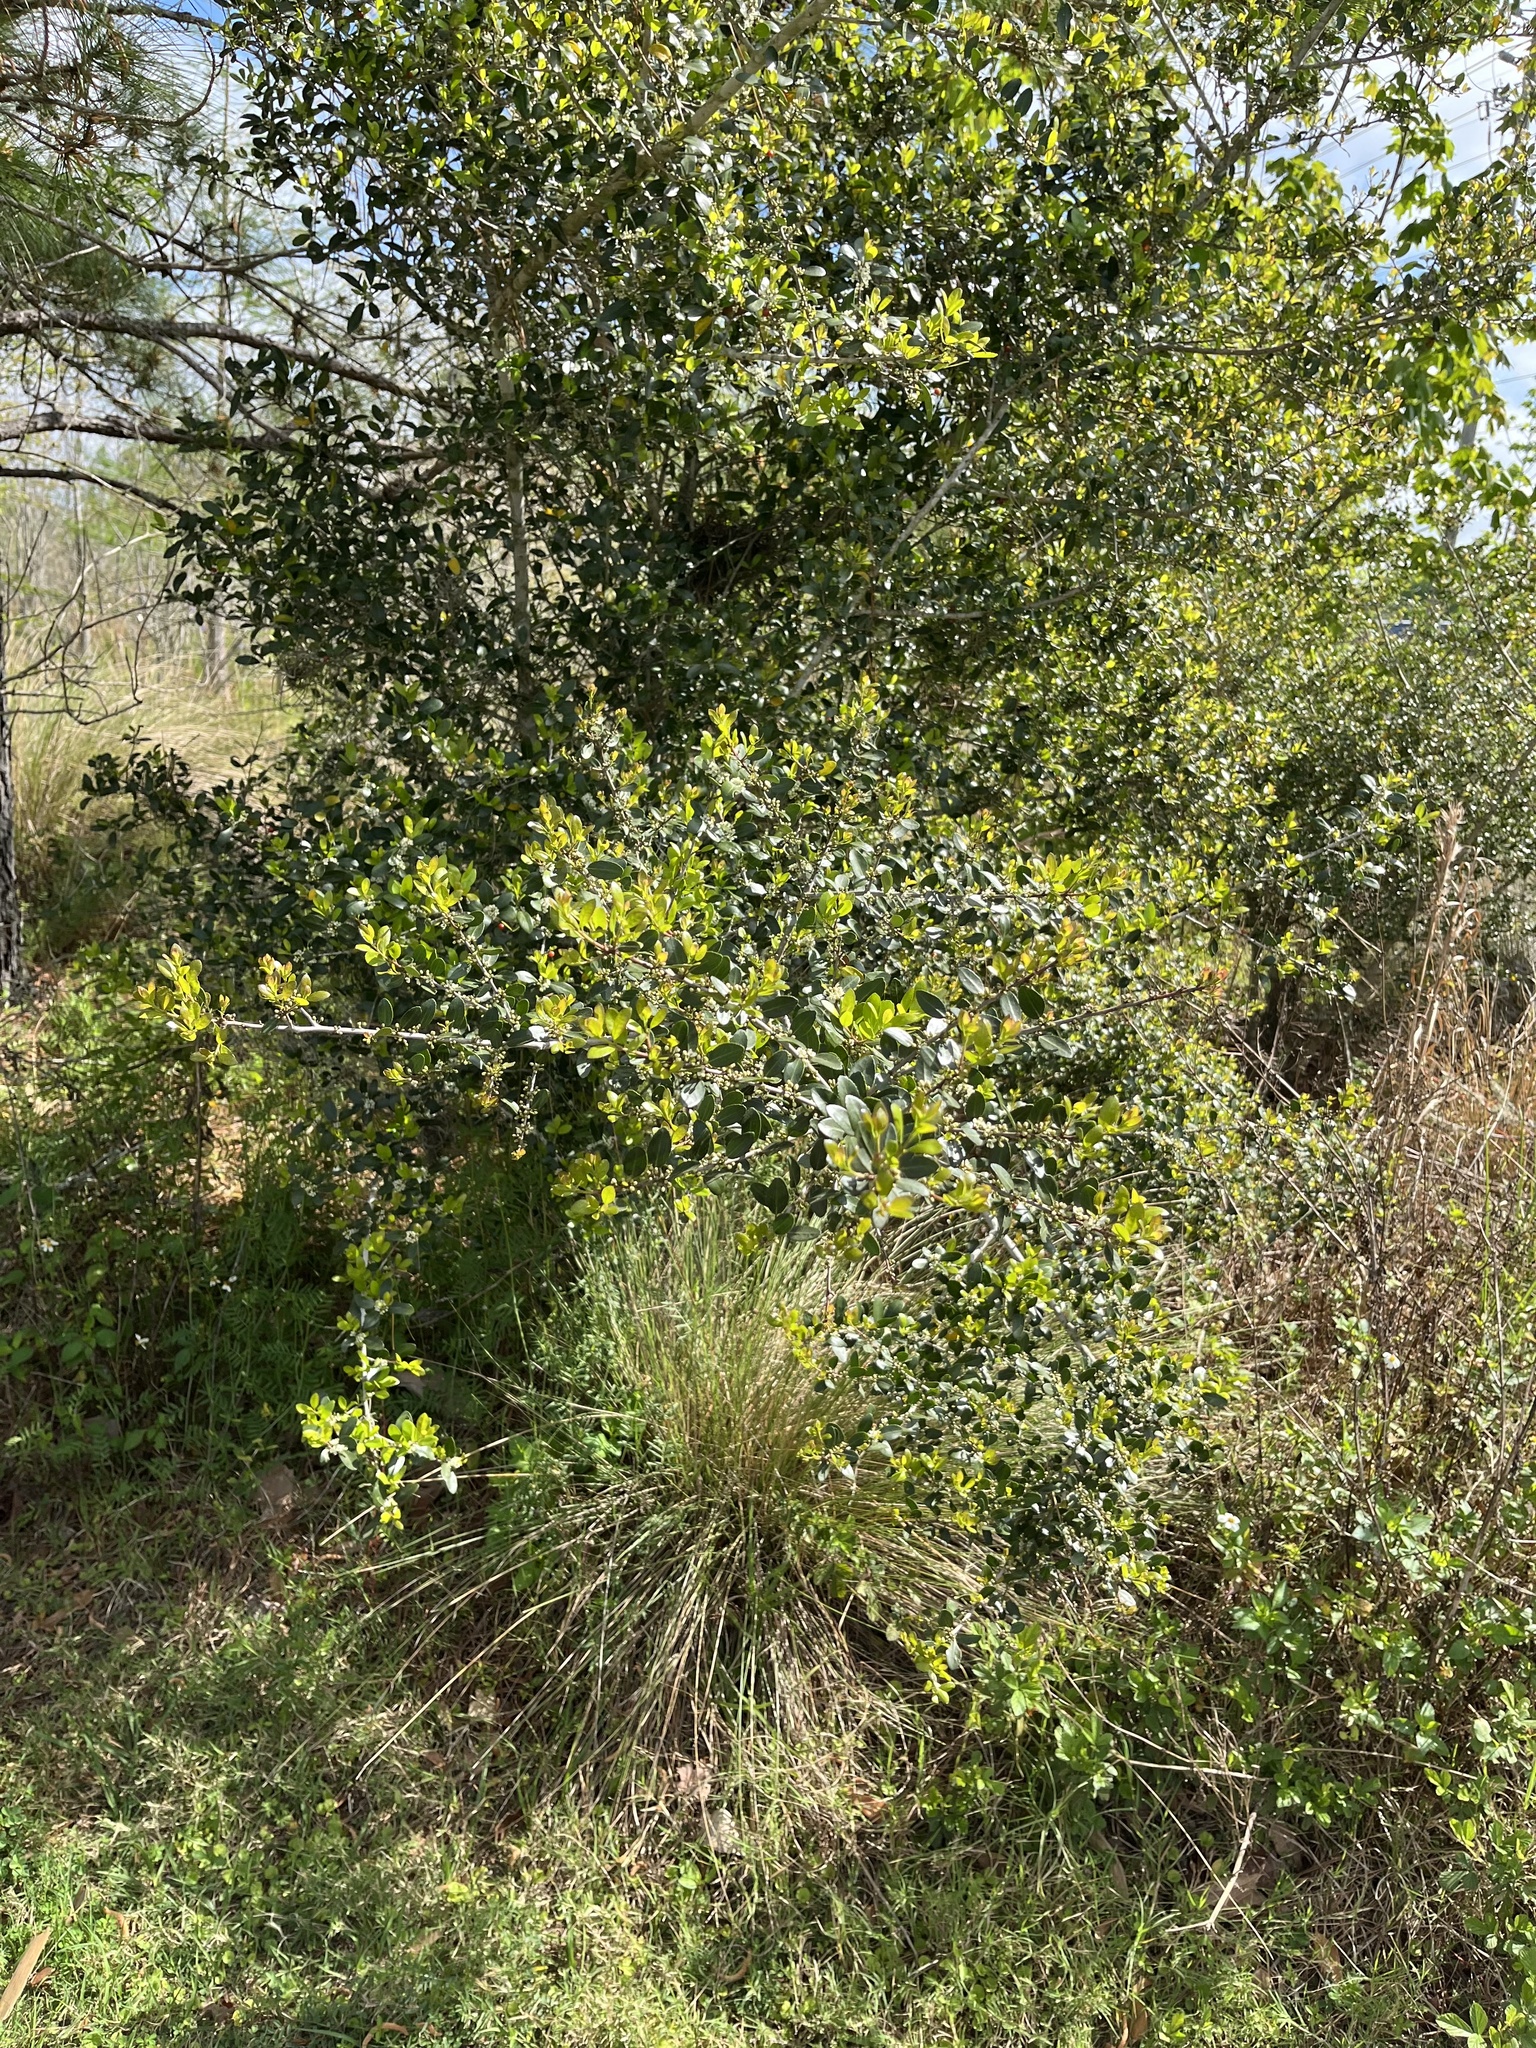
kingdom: Plantae
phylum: Tracheophyta
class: Magnoliopsida
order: Aquifoliales
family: Aquifoliaceae
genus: Ilex
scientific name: Ilex vomitoria
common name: Yaupon holly
